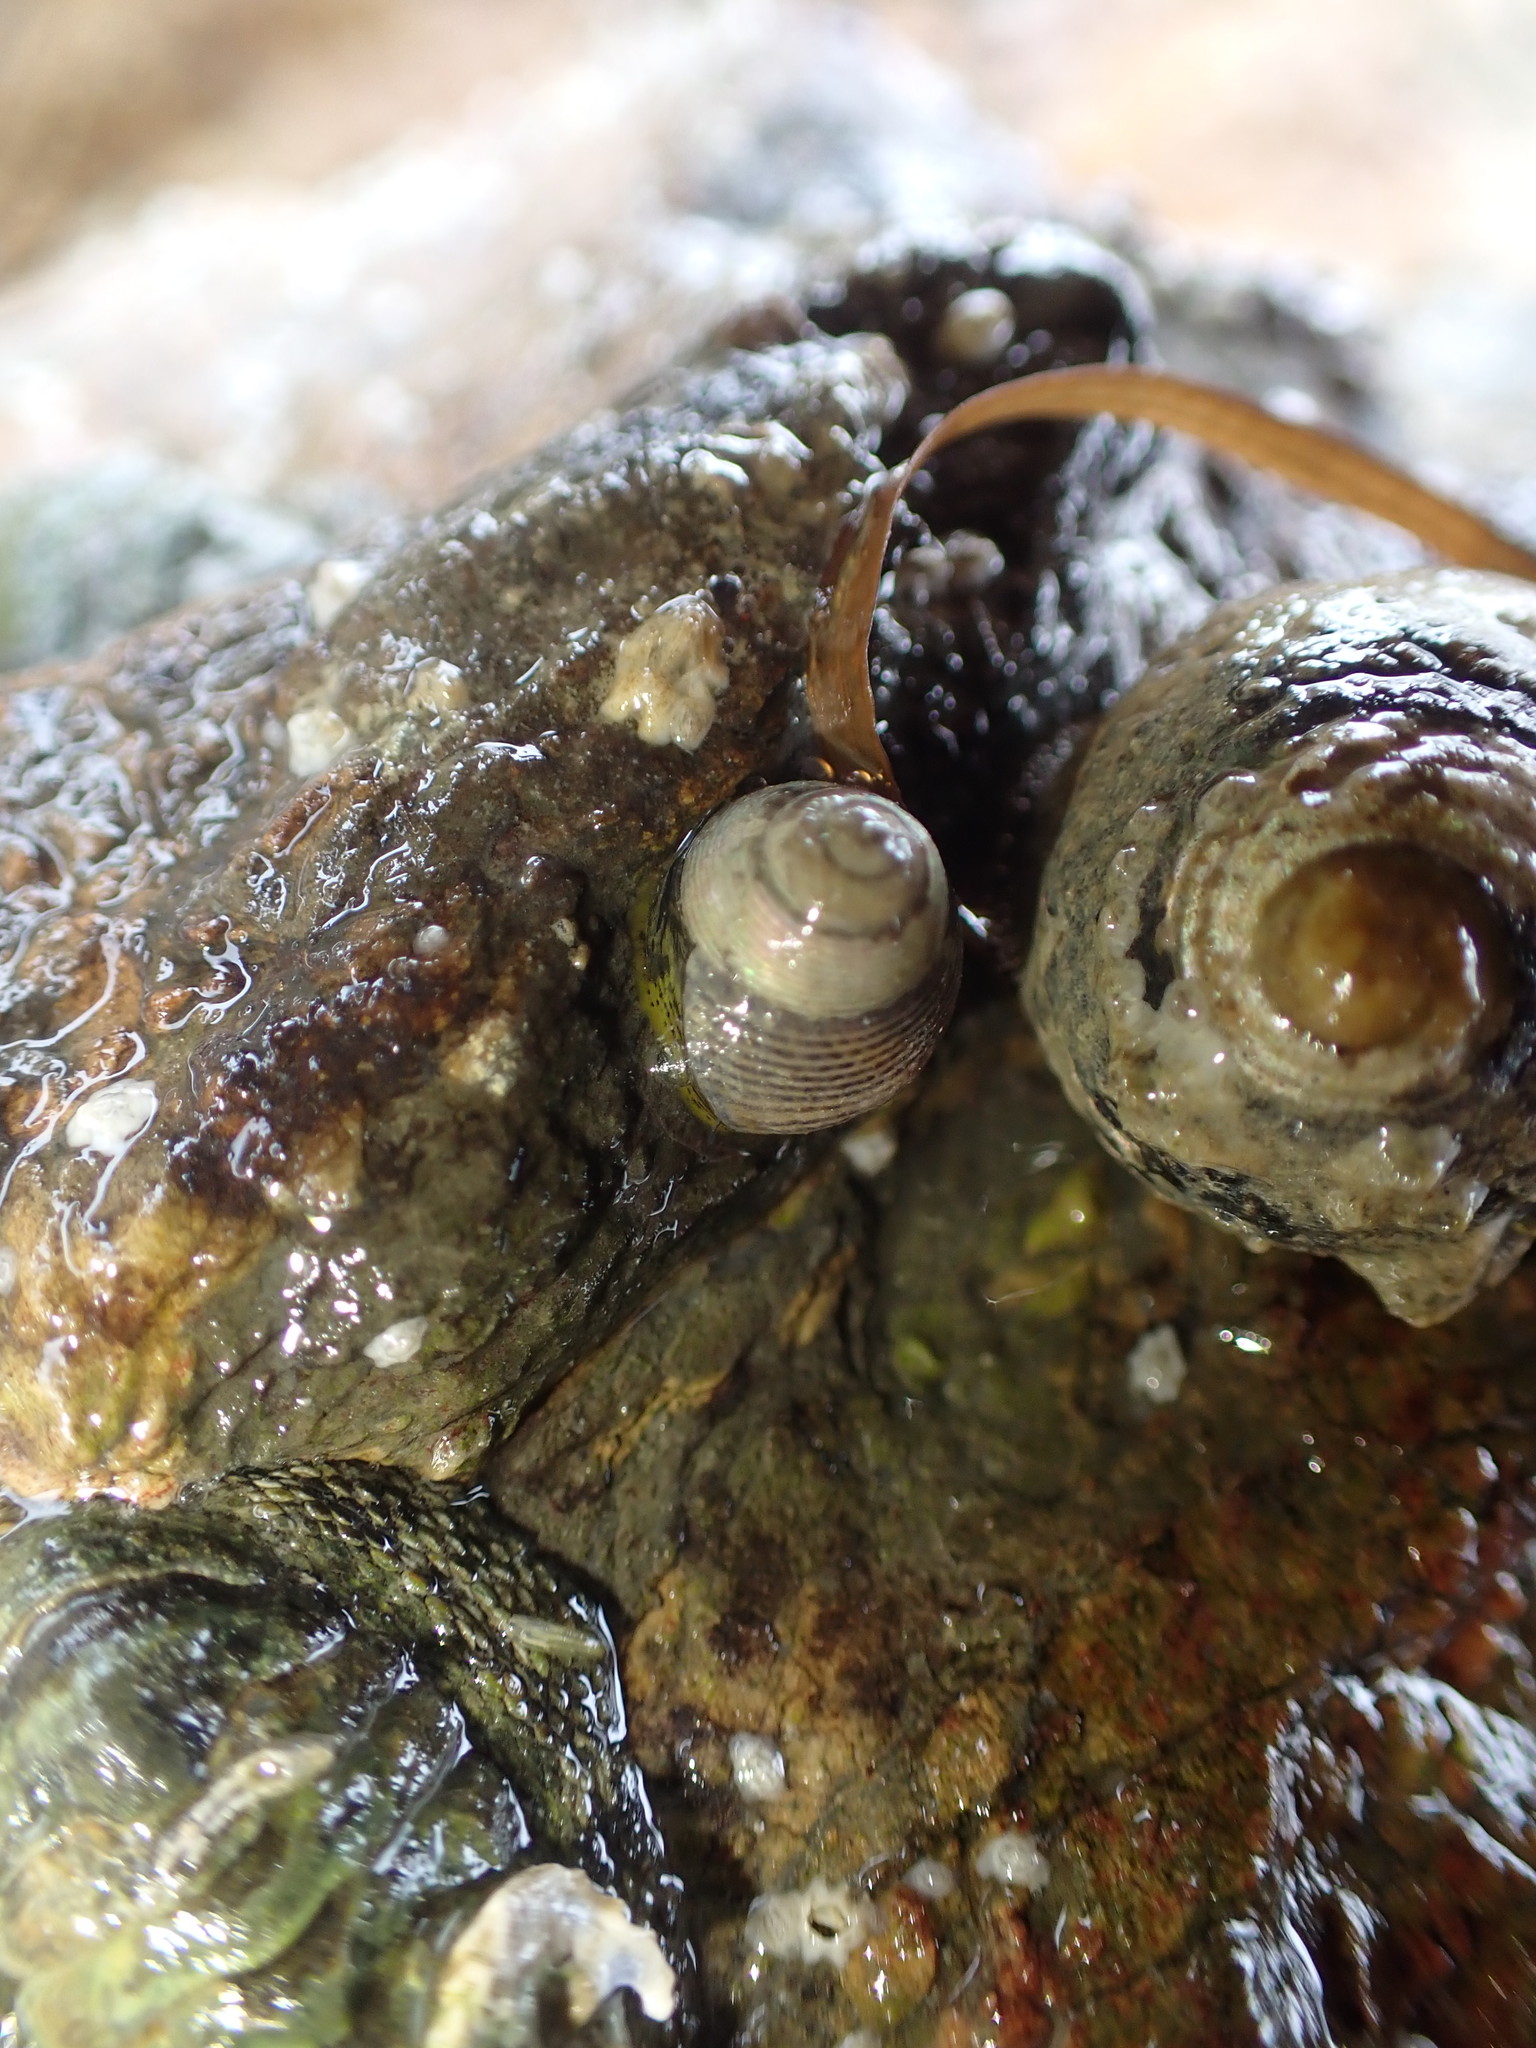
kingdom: Animalia
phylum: Mollusca
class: Gastropoda
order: Trochida
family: Trochidae
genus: Micrelenchus
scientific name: Micrelenchus huttonii
